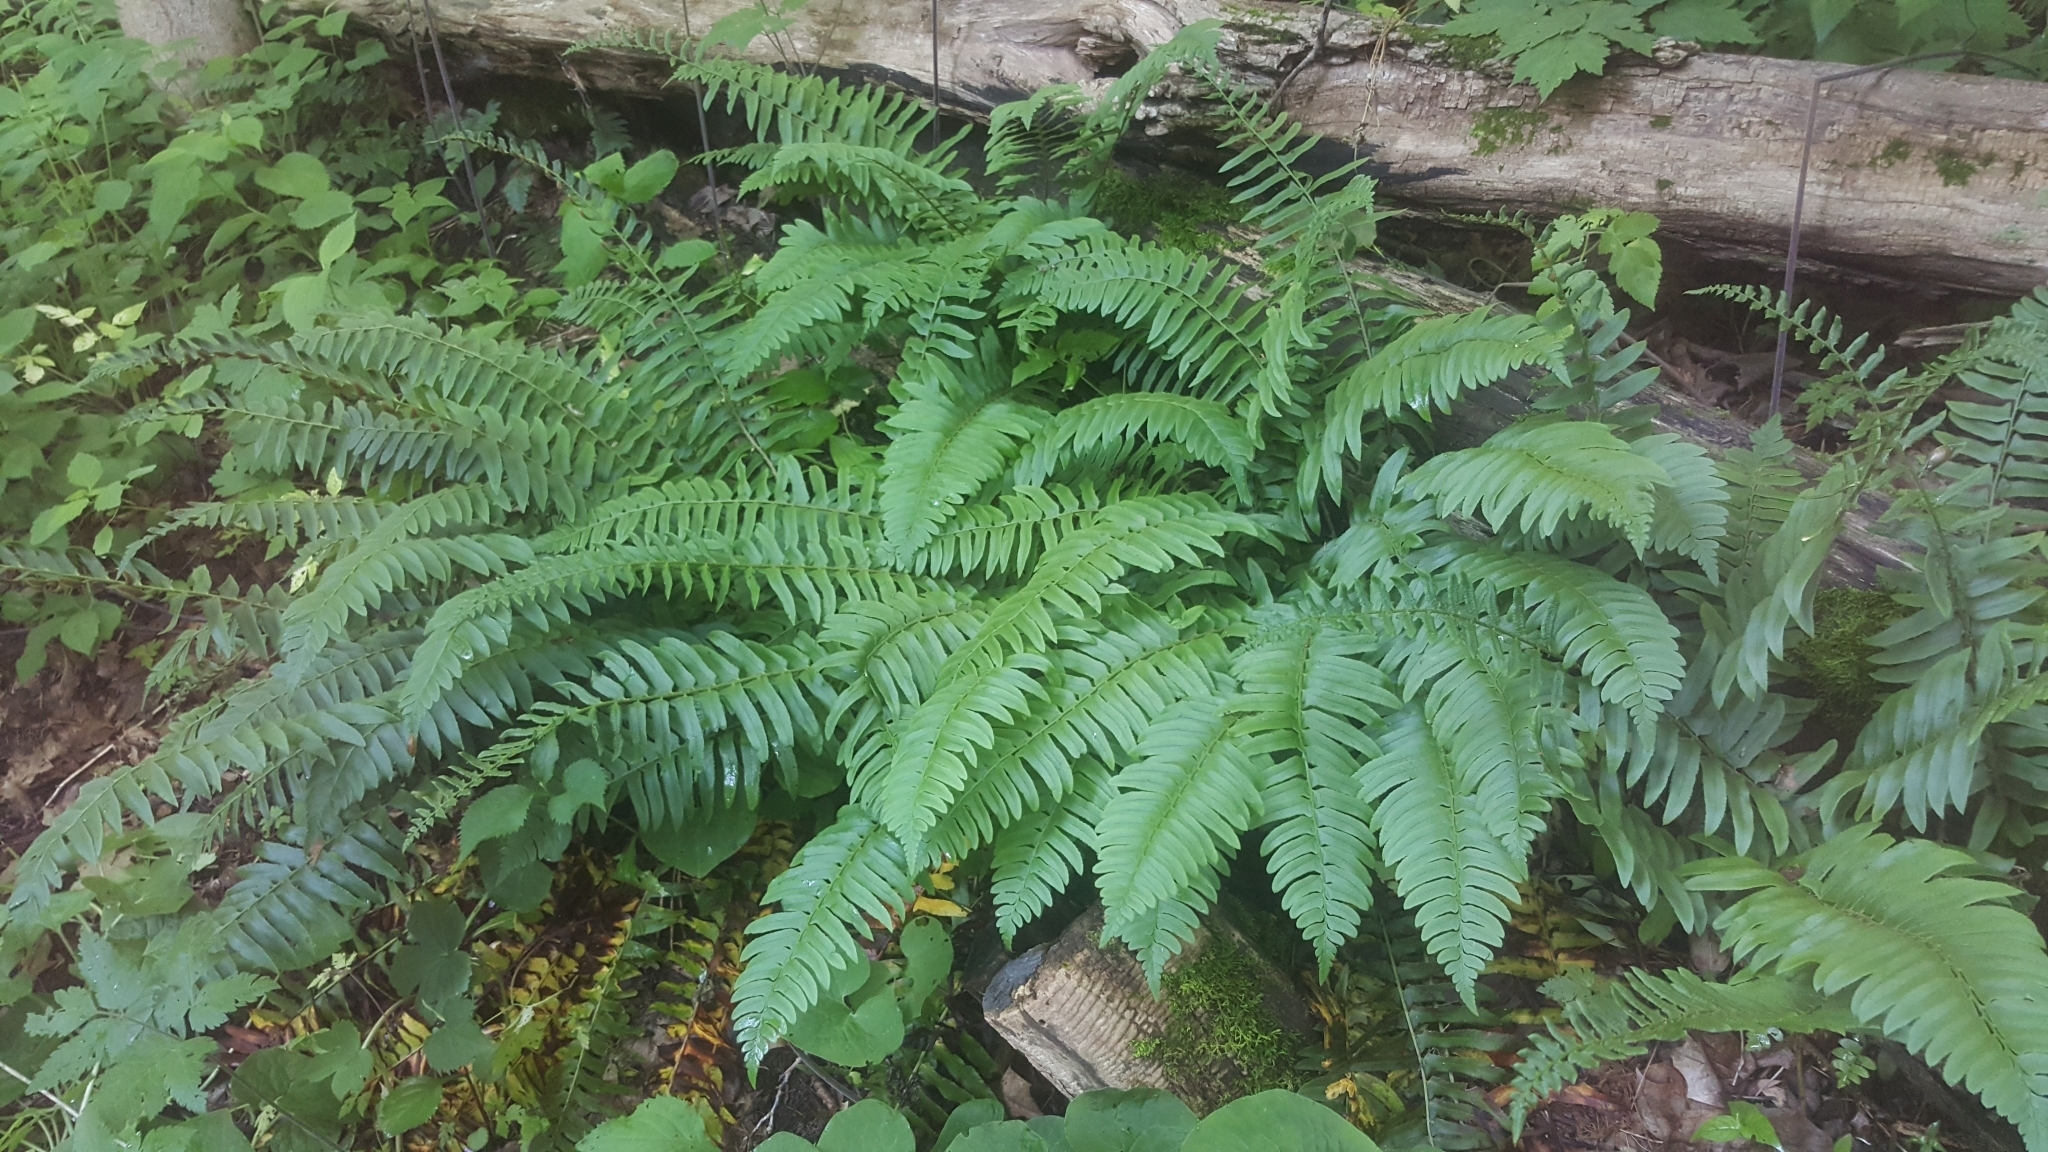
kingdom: Plantae
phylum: Tracheophyta
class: Polypodiopsida
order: Polypodiales
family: Dryopteridaceae
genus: Polystichum
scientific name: Polystichum acrostichoides
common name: Christmas fern
